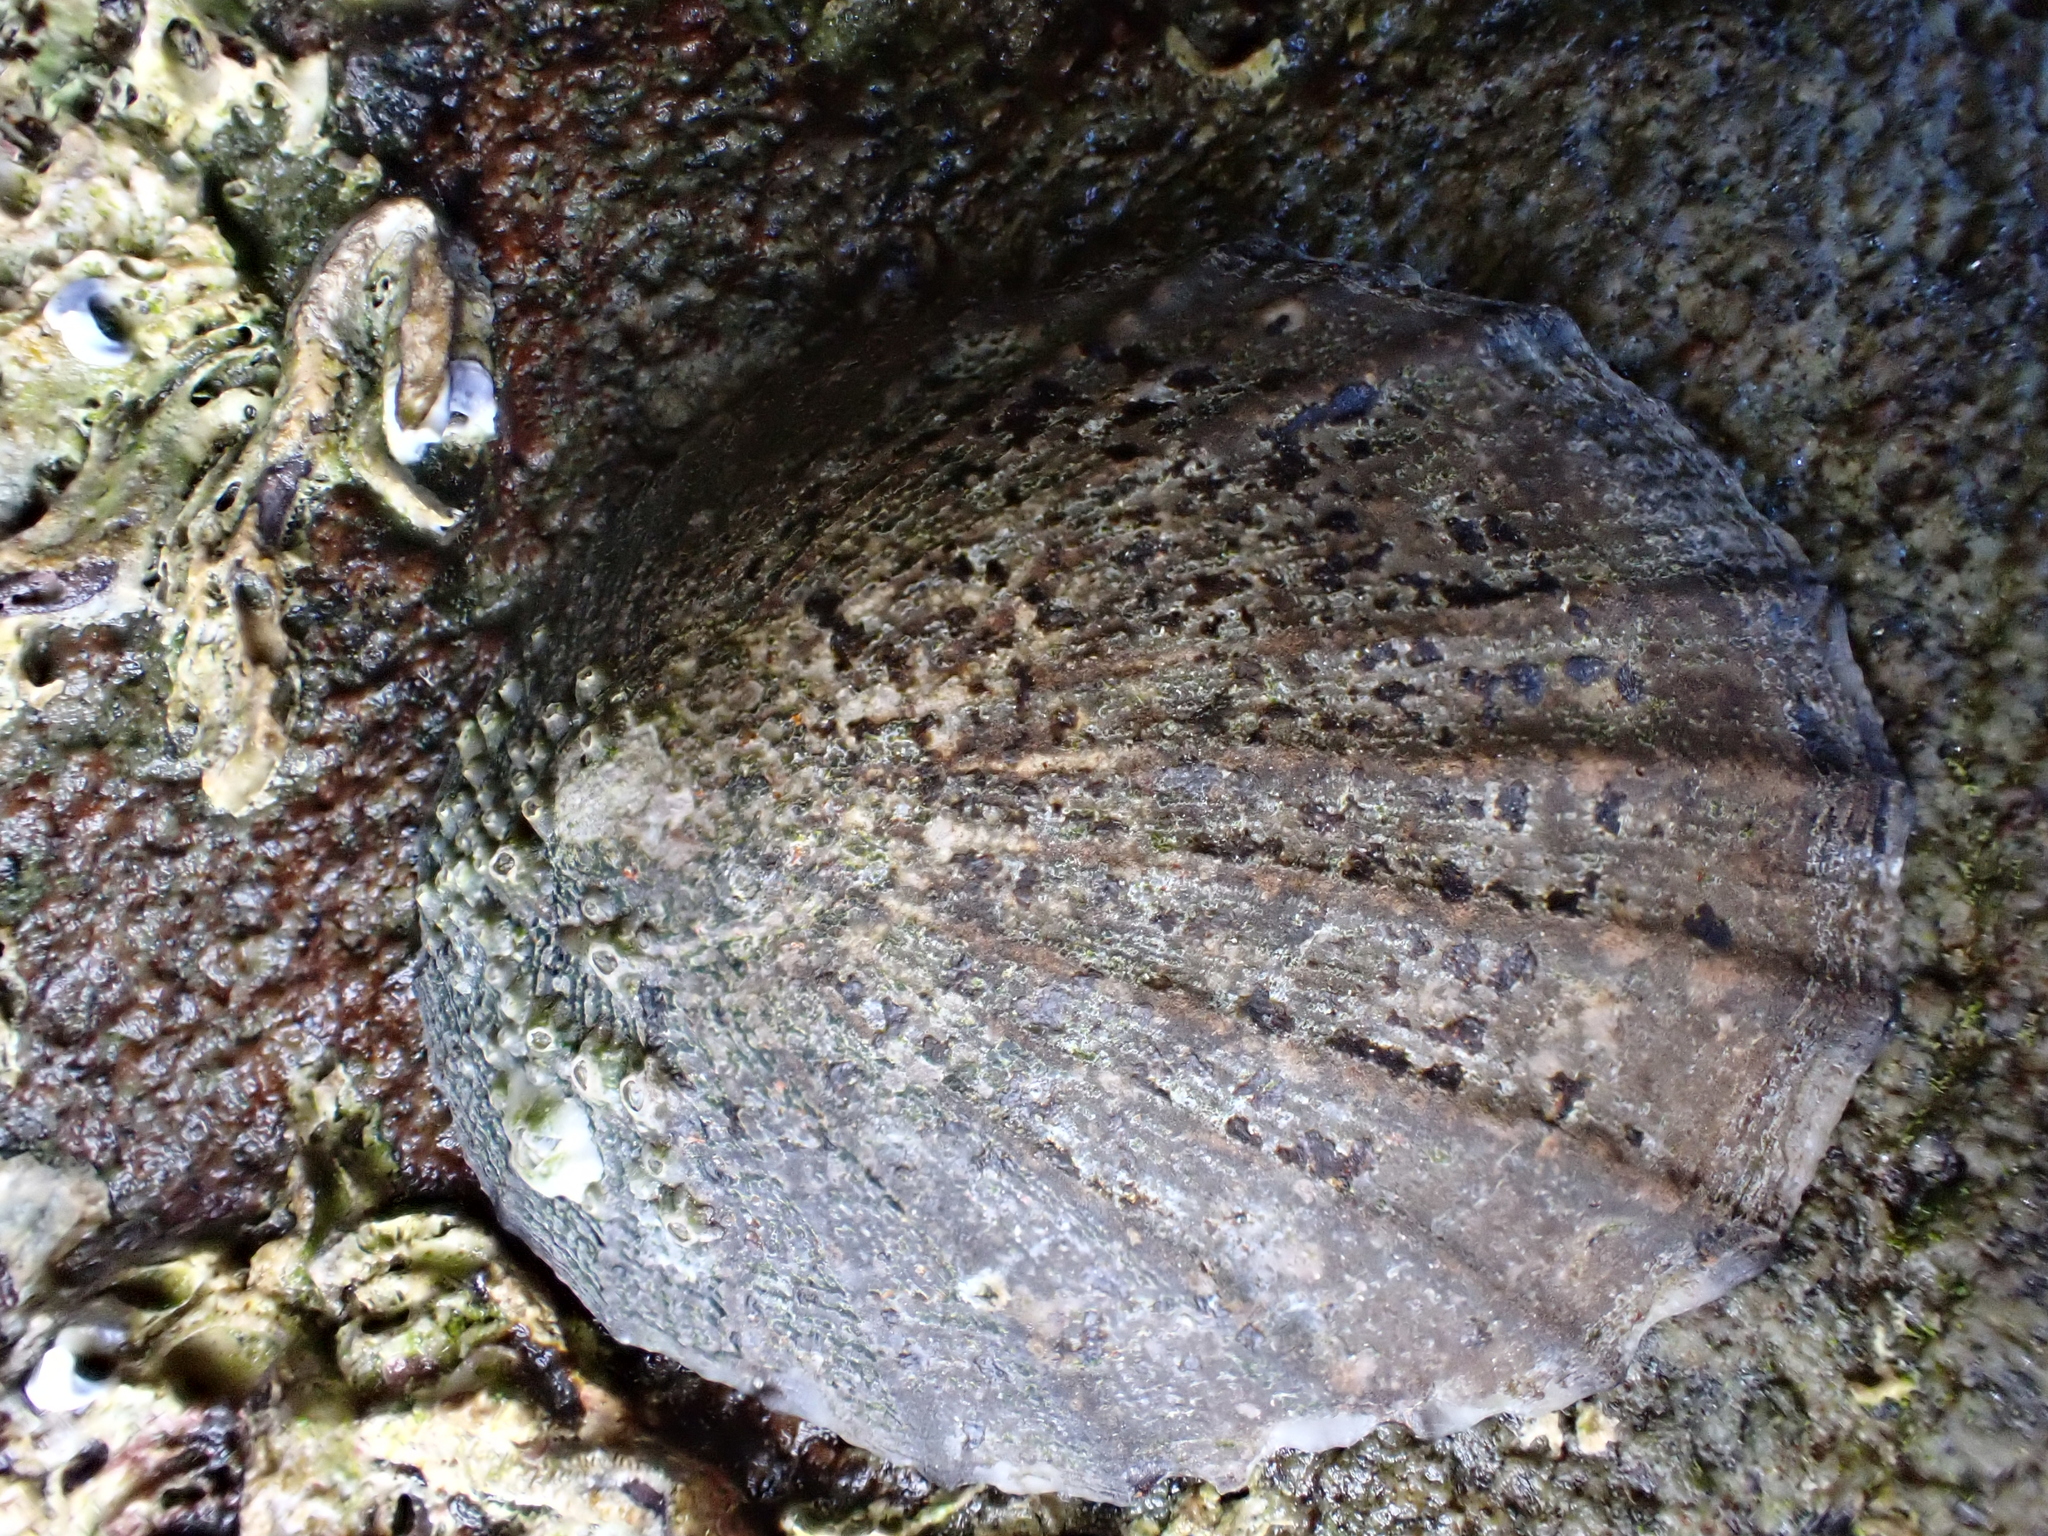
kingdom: Animalia
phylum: Mollusca
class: Gastropoda
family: Nacellidae
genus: Cellana
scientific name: Cellana radians
